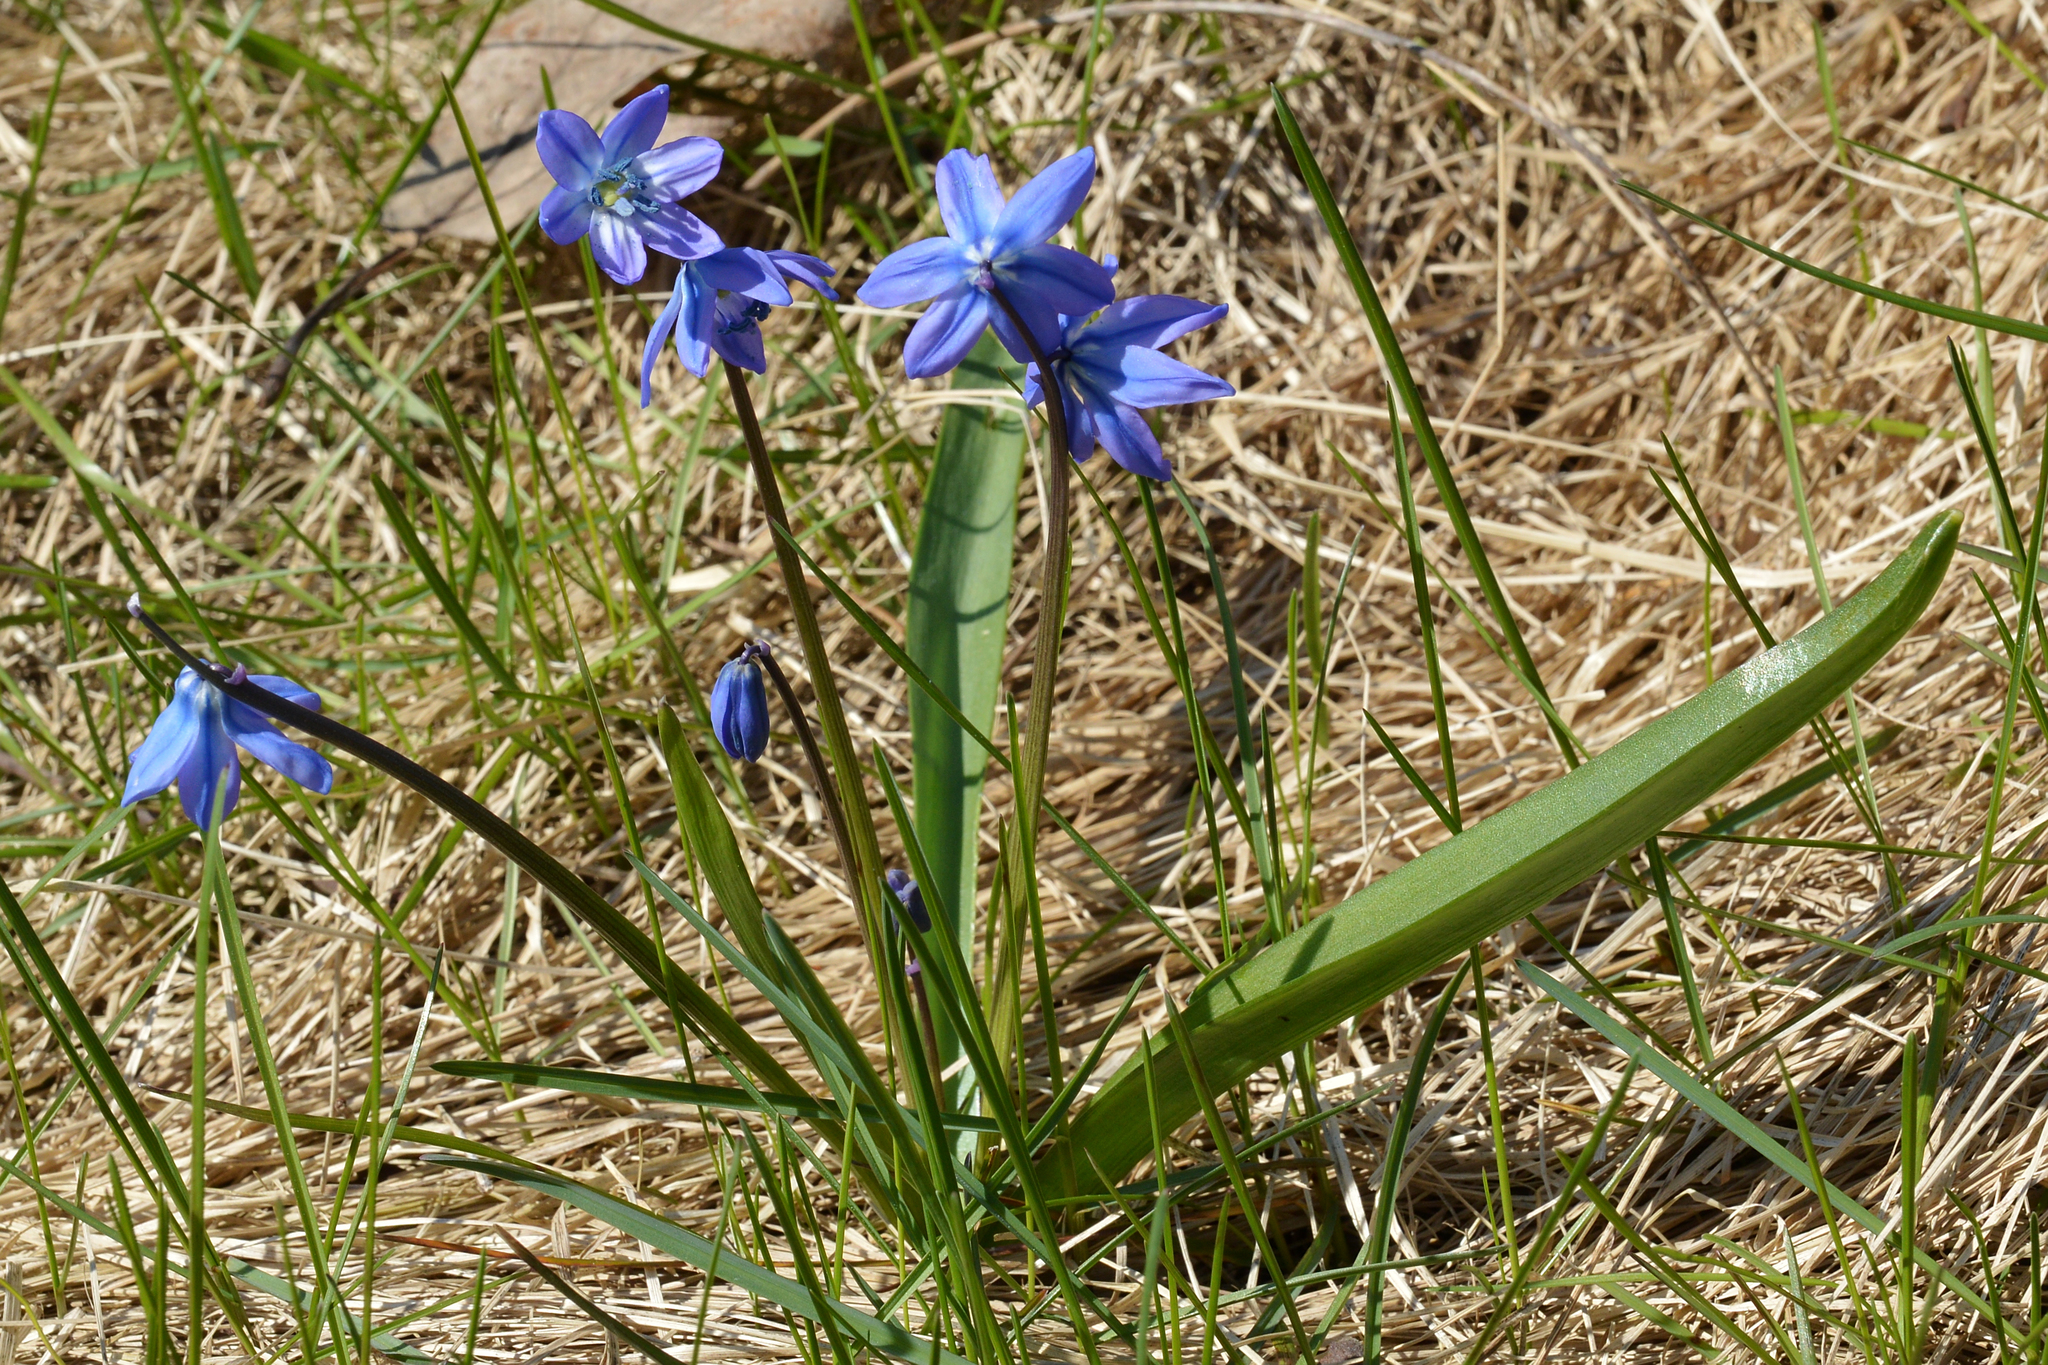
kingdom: Plantae
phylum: Tracheophyta
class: Liliopsida
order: Asparagales
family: Asparagaceae
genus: Scilla
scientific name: Scilla siberica
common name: Siberian squill
